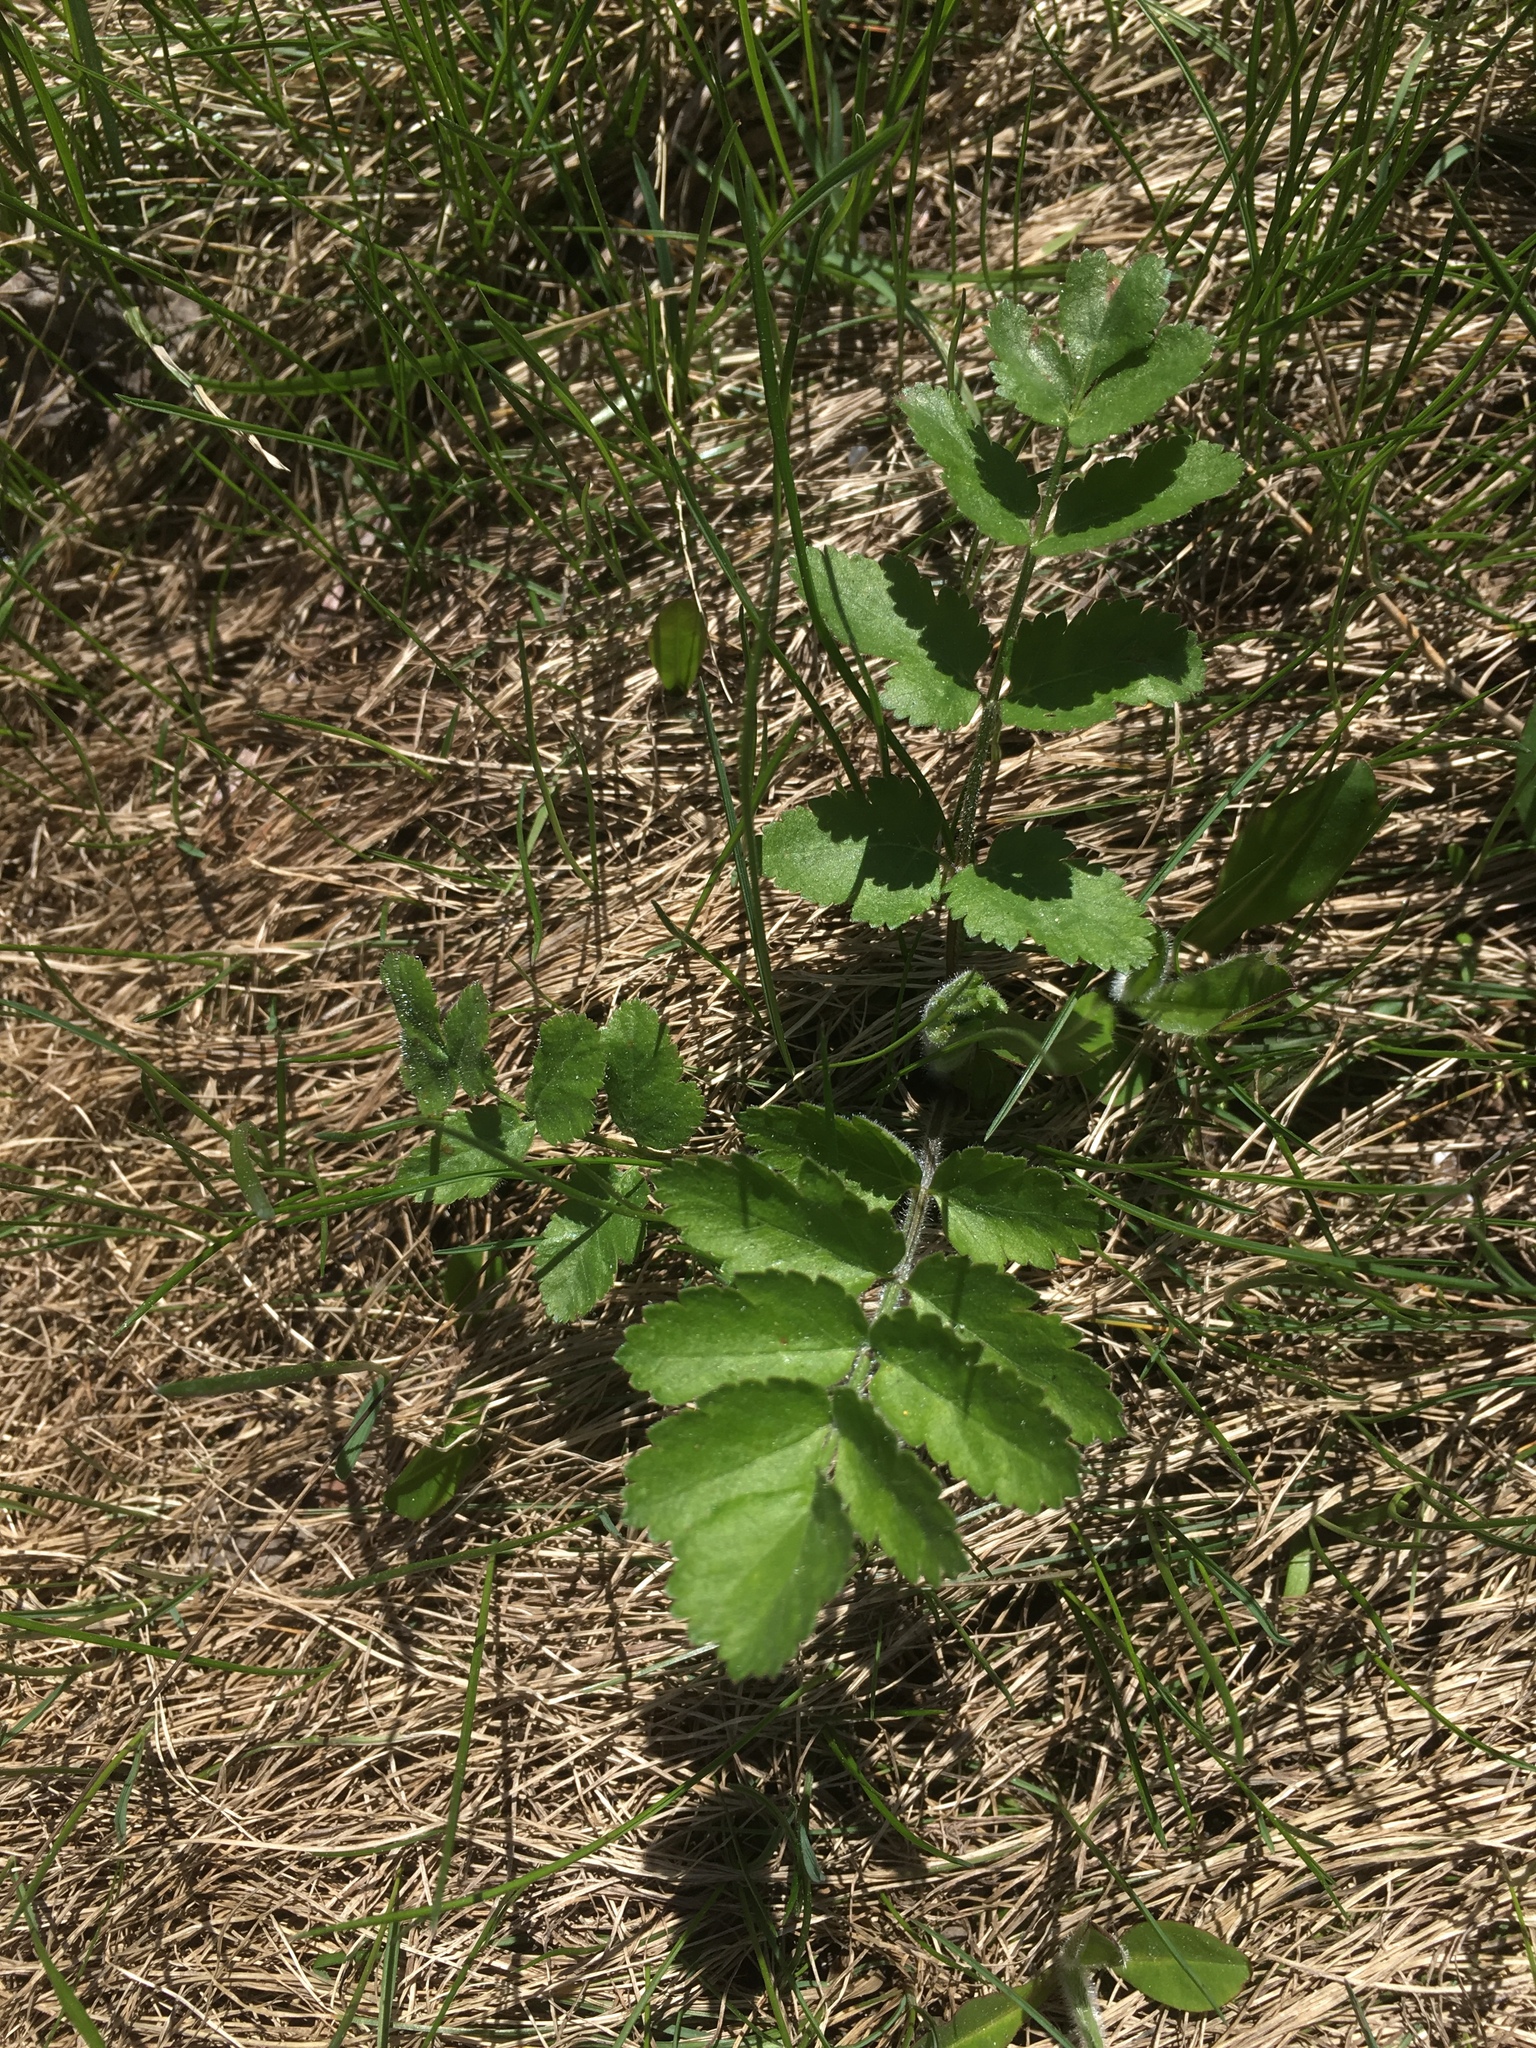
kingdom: Plantae
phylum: Tracheophyta
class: Magnoliopsida
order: Apiales
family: Apiaceae
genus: Pastinaca
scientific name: Pastinaca sativa
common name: Wild parsnip
